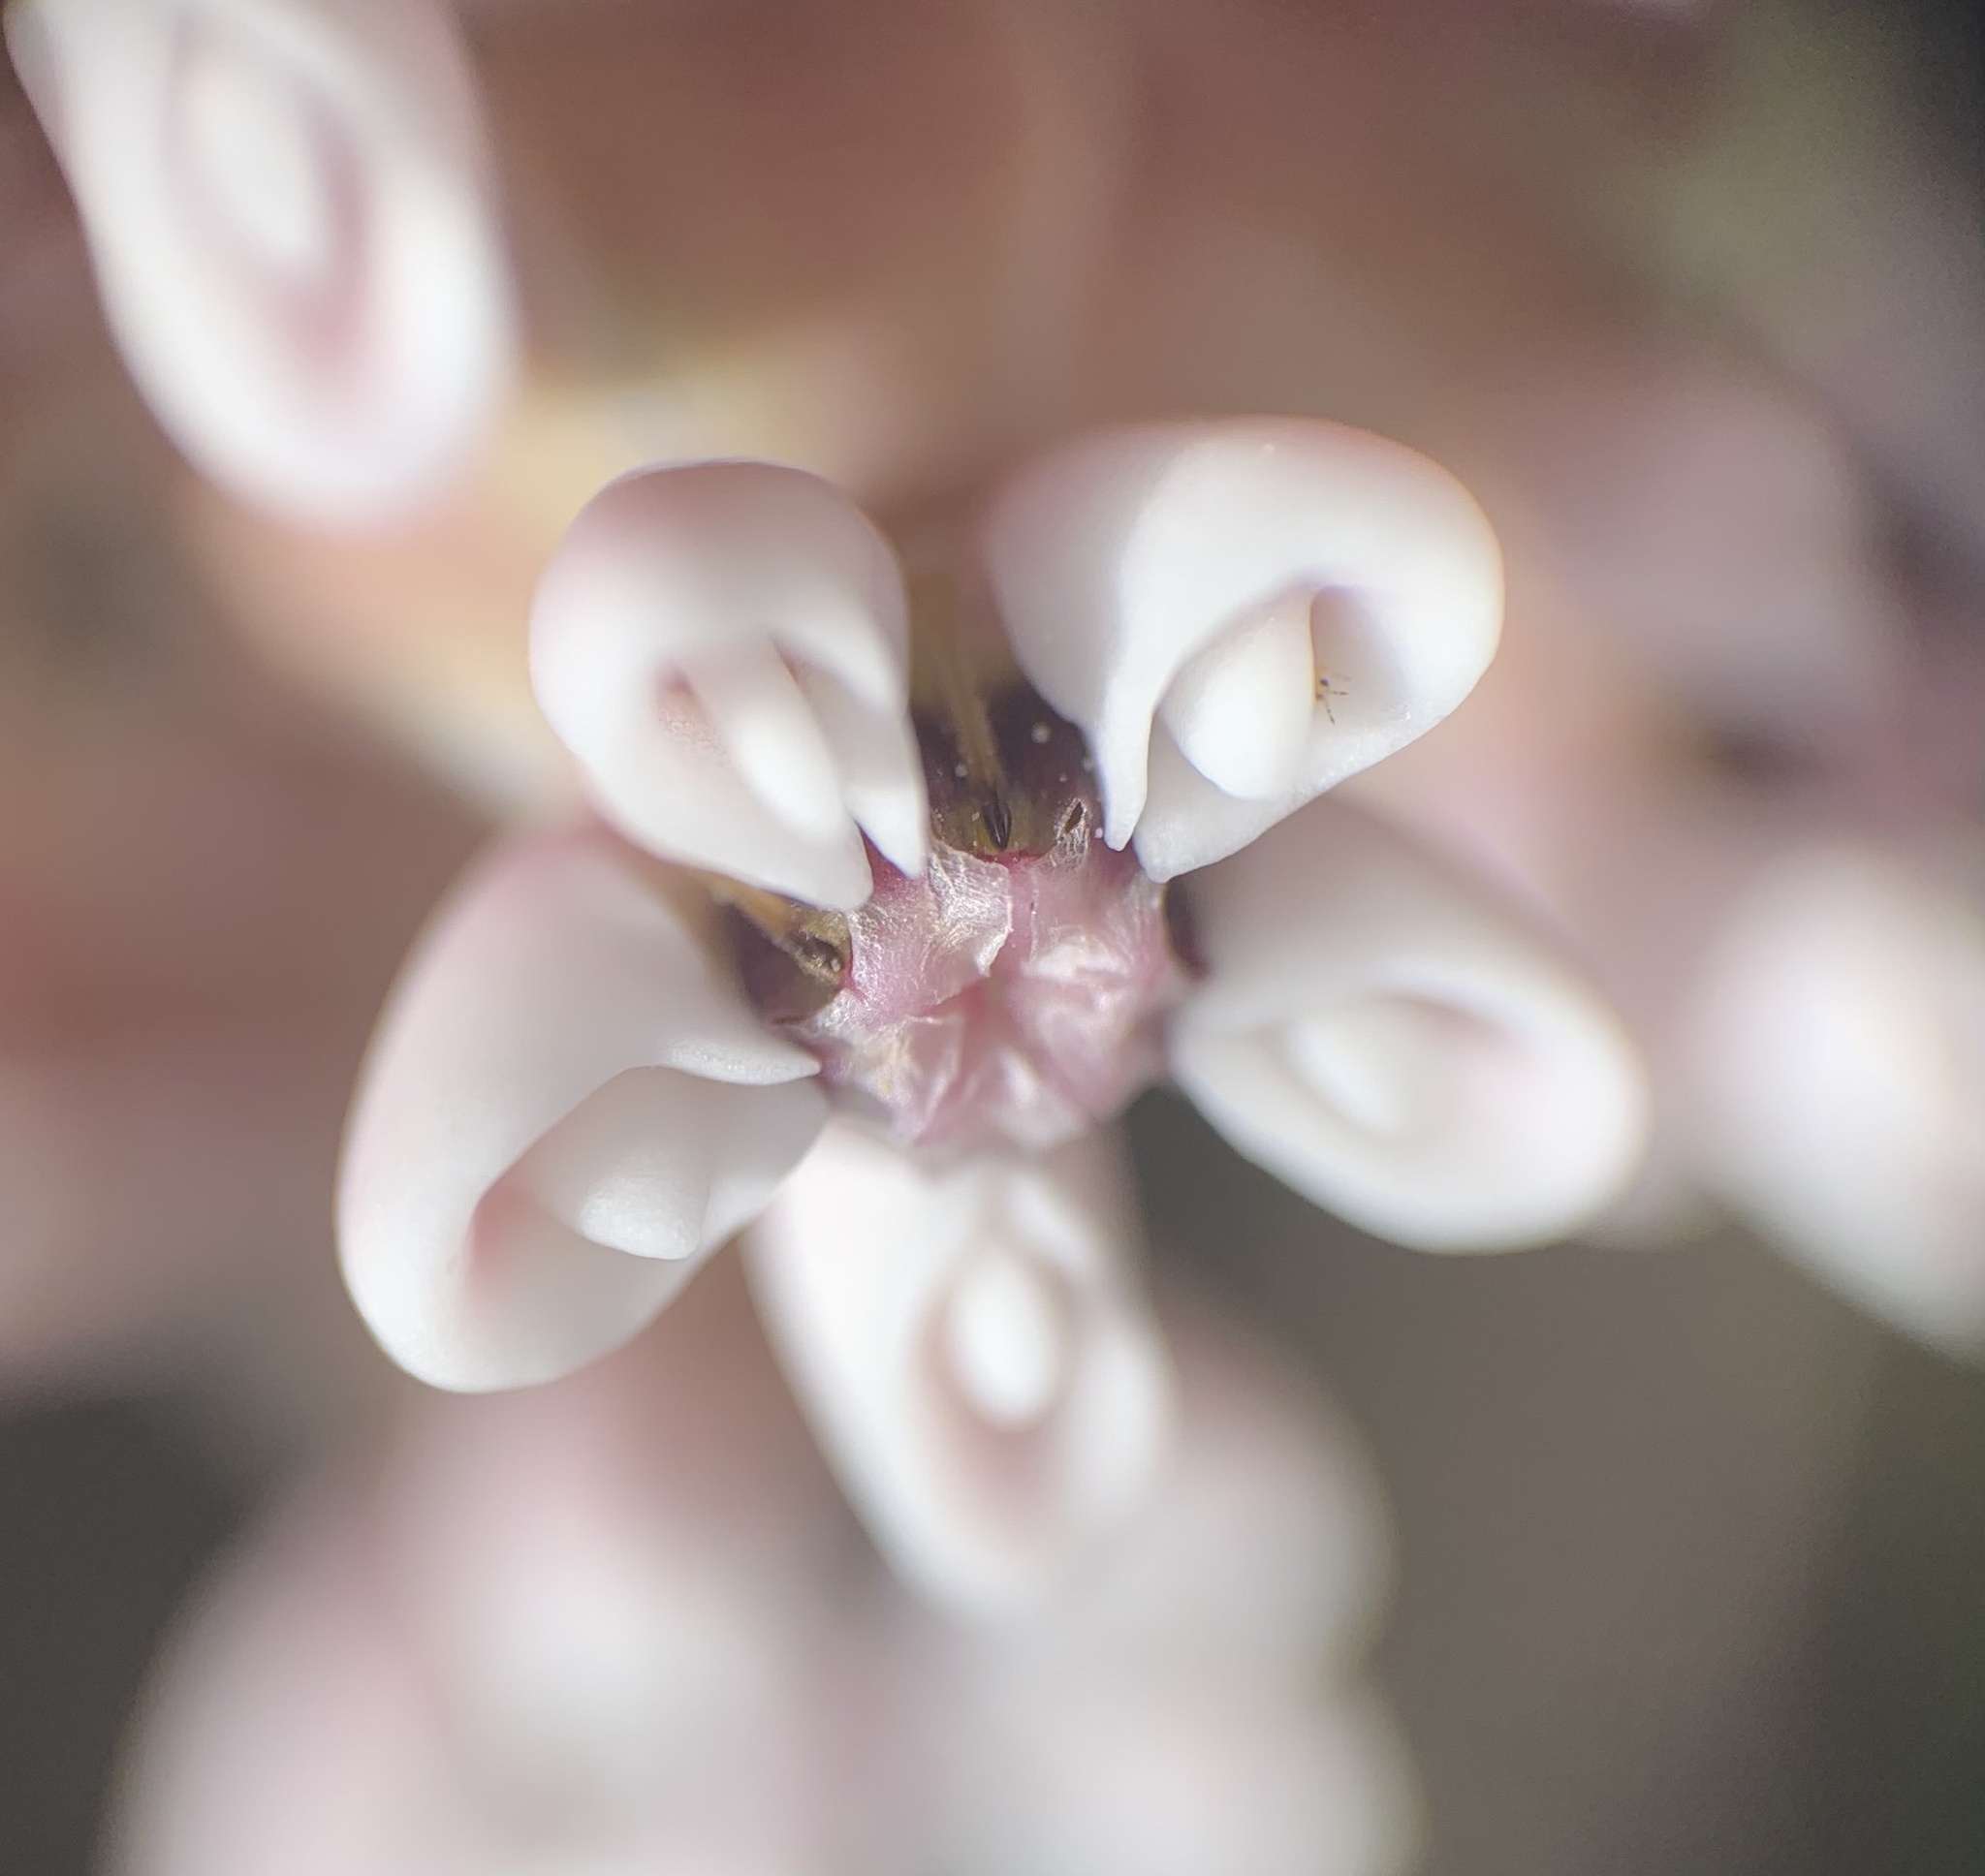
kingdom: Plantae
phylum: Tracheophyta
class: Magnoliopsida
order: Gentianales
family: Apocynaceae
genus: Asclepias
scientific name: Asclepias humistrata
